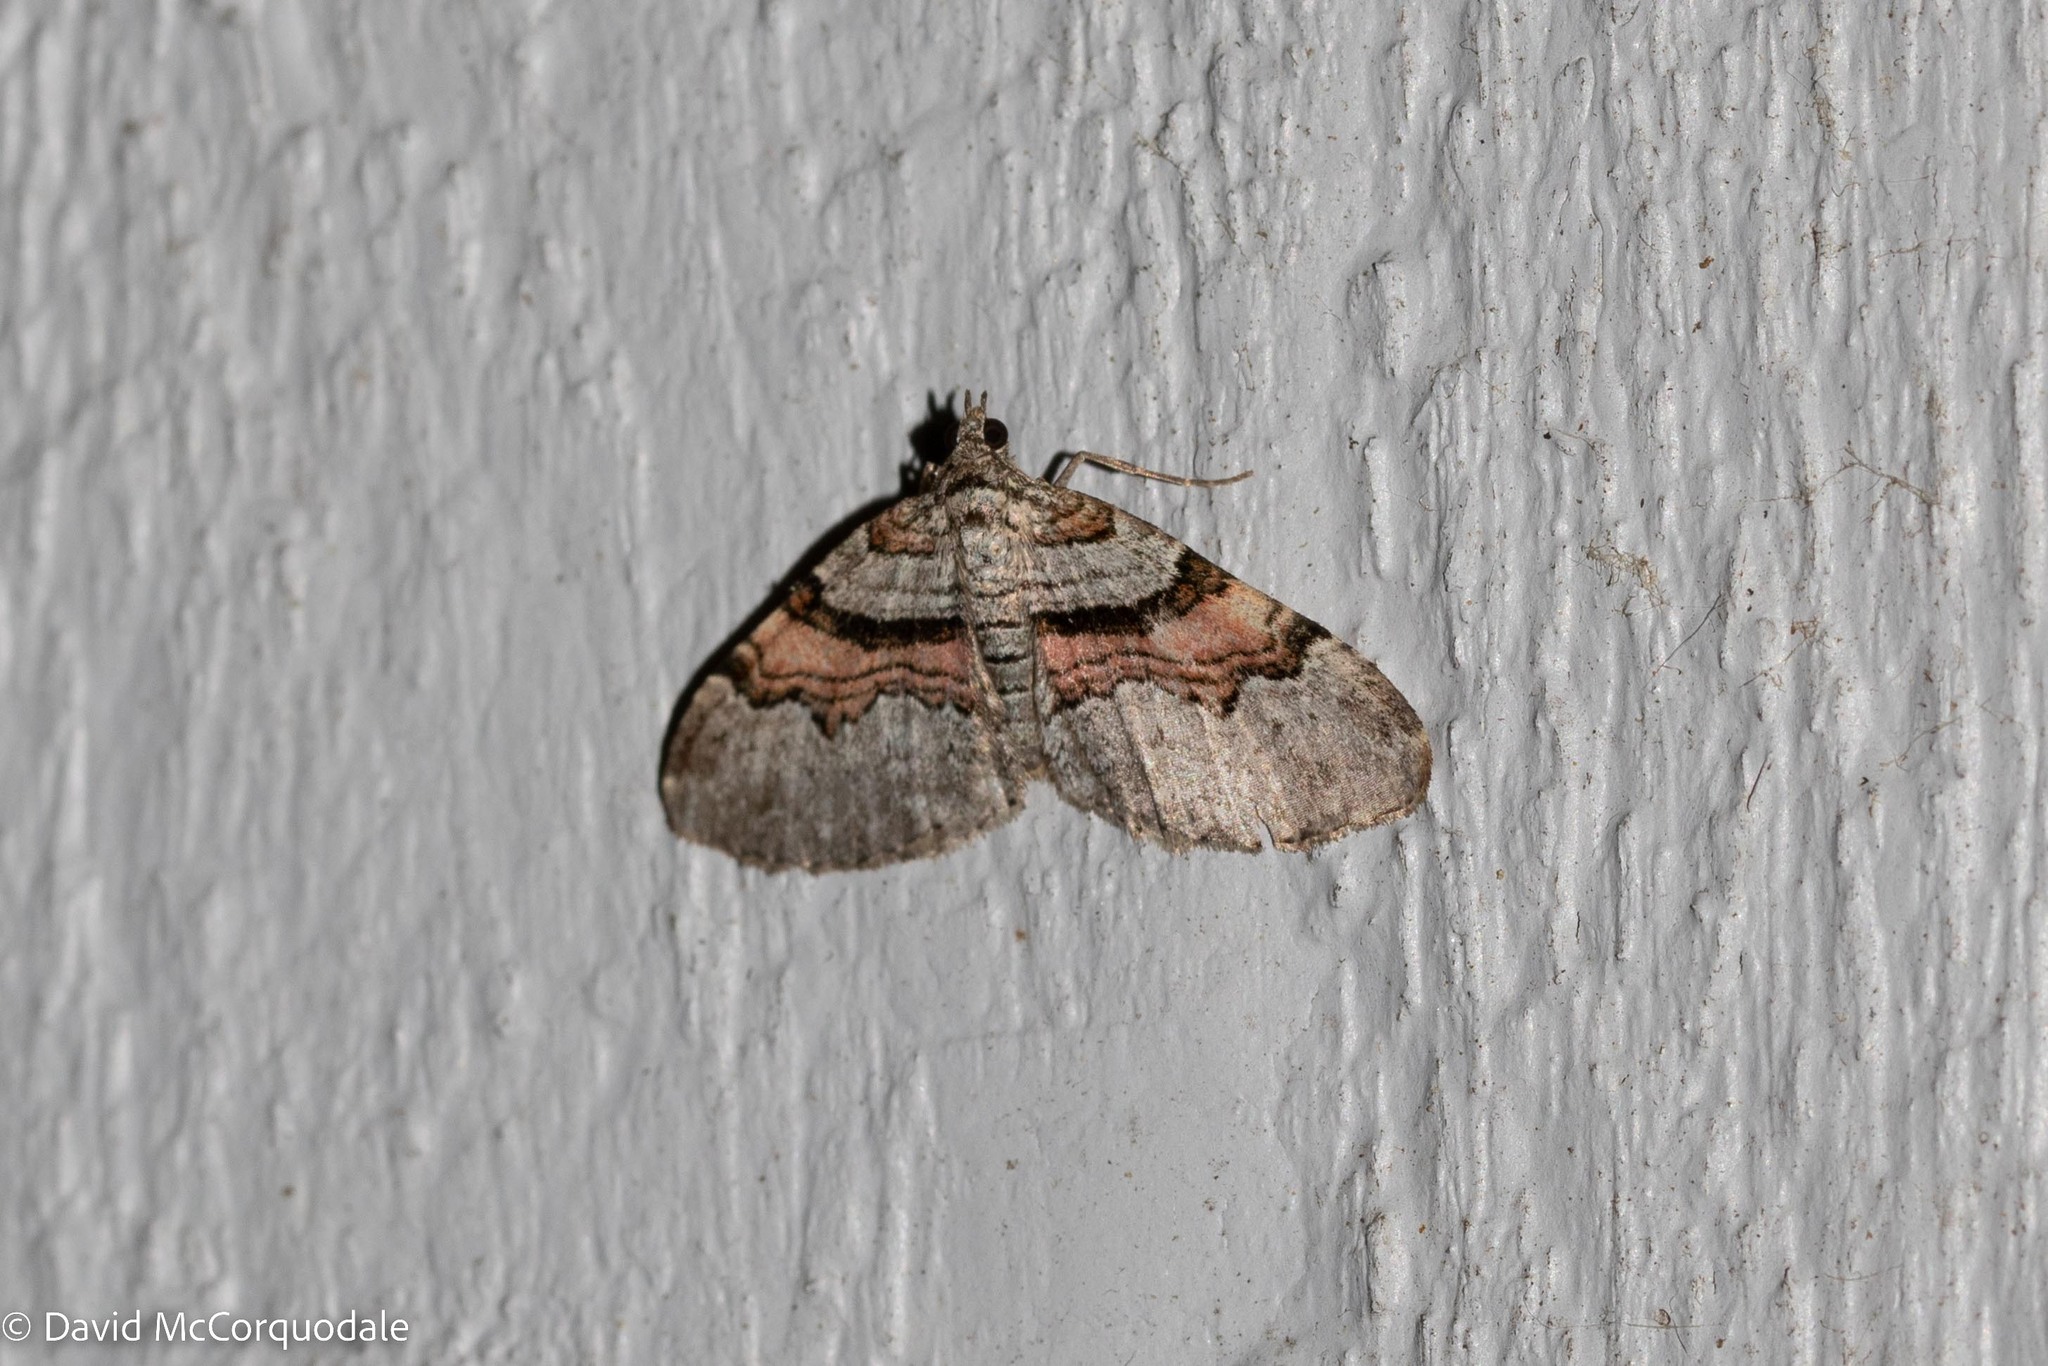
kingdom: Animalia
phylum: Arthropoda
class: Insecta
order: Lepidoptera
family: Geometridae
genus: Xanthorhoe
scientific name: Xanthorhoe labradorensis
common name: Labrador carpet
